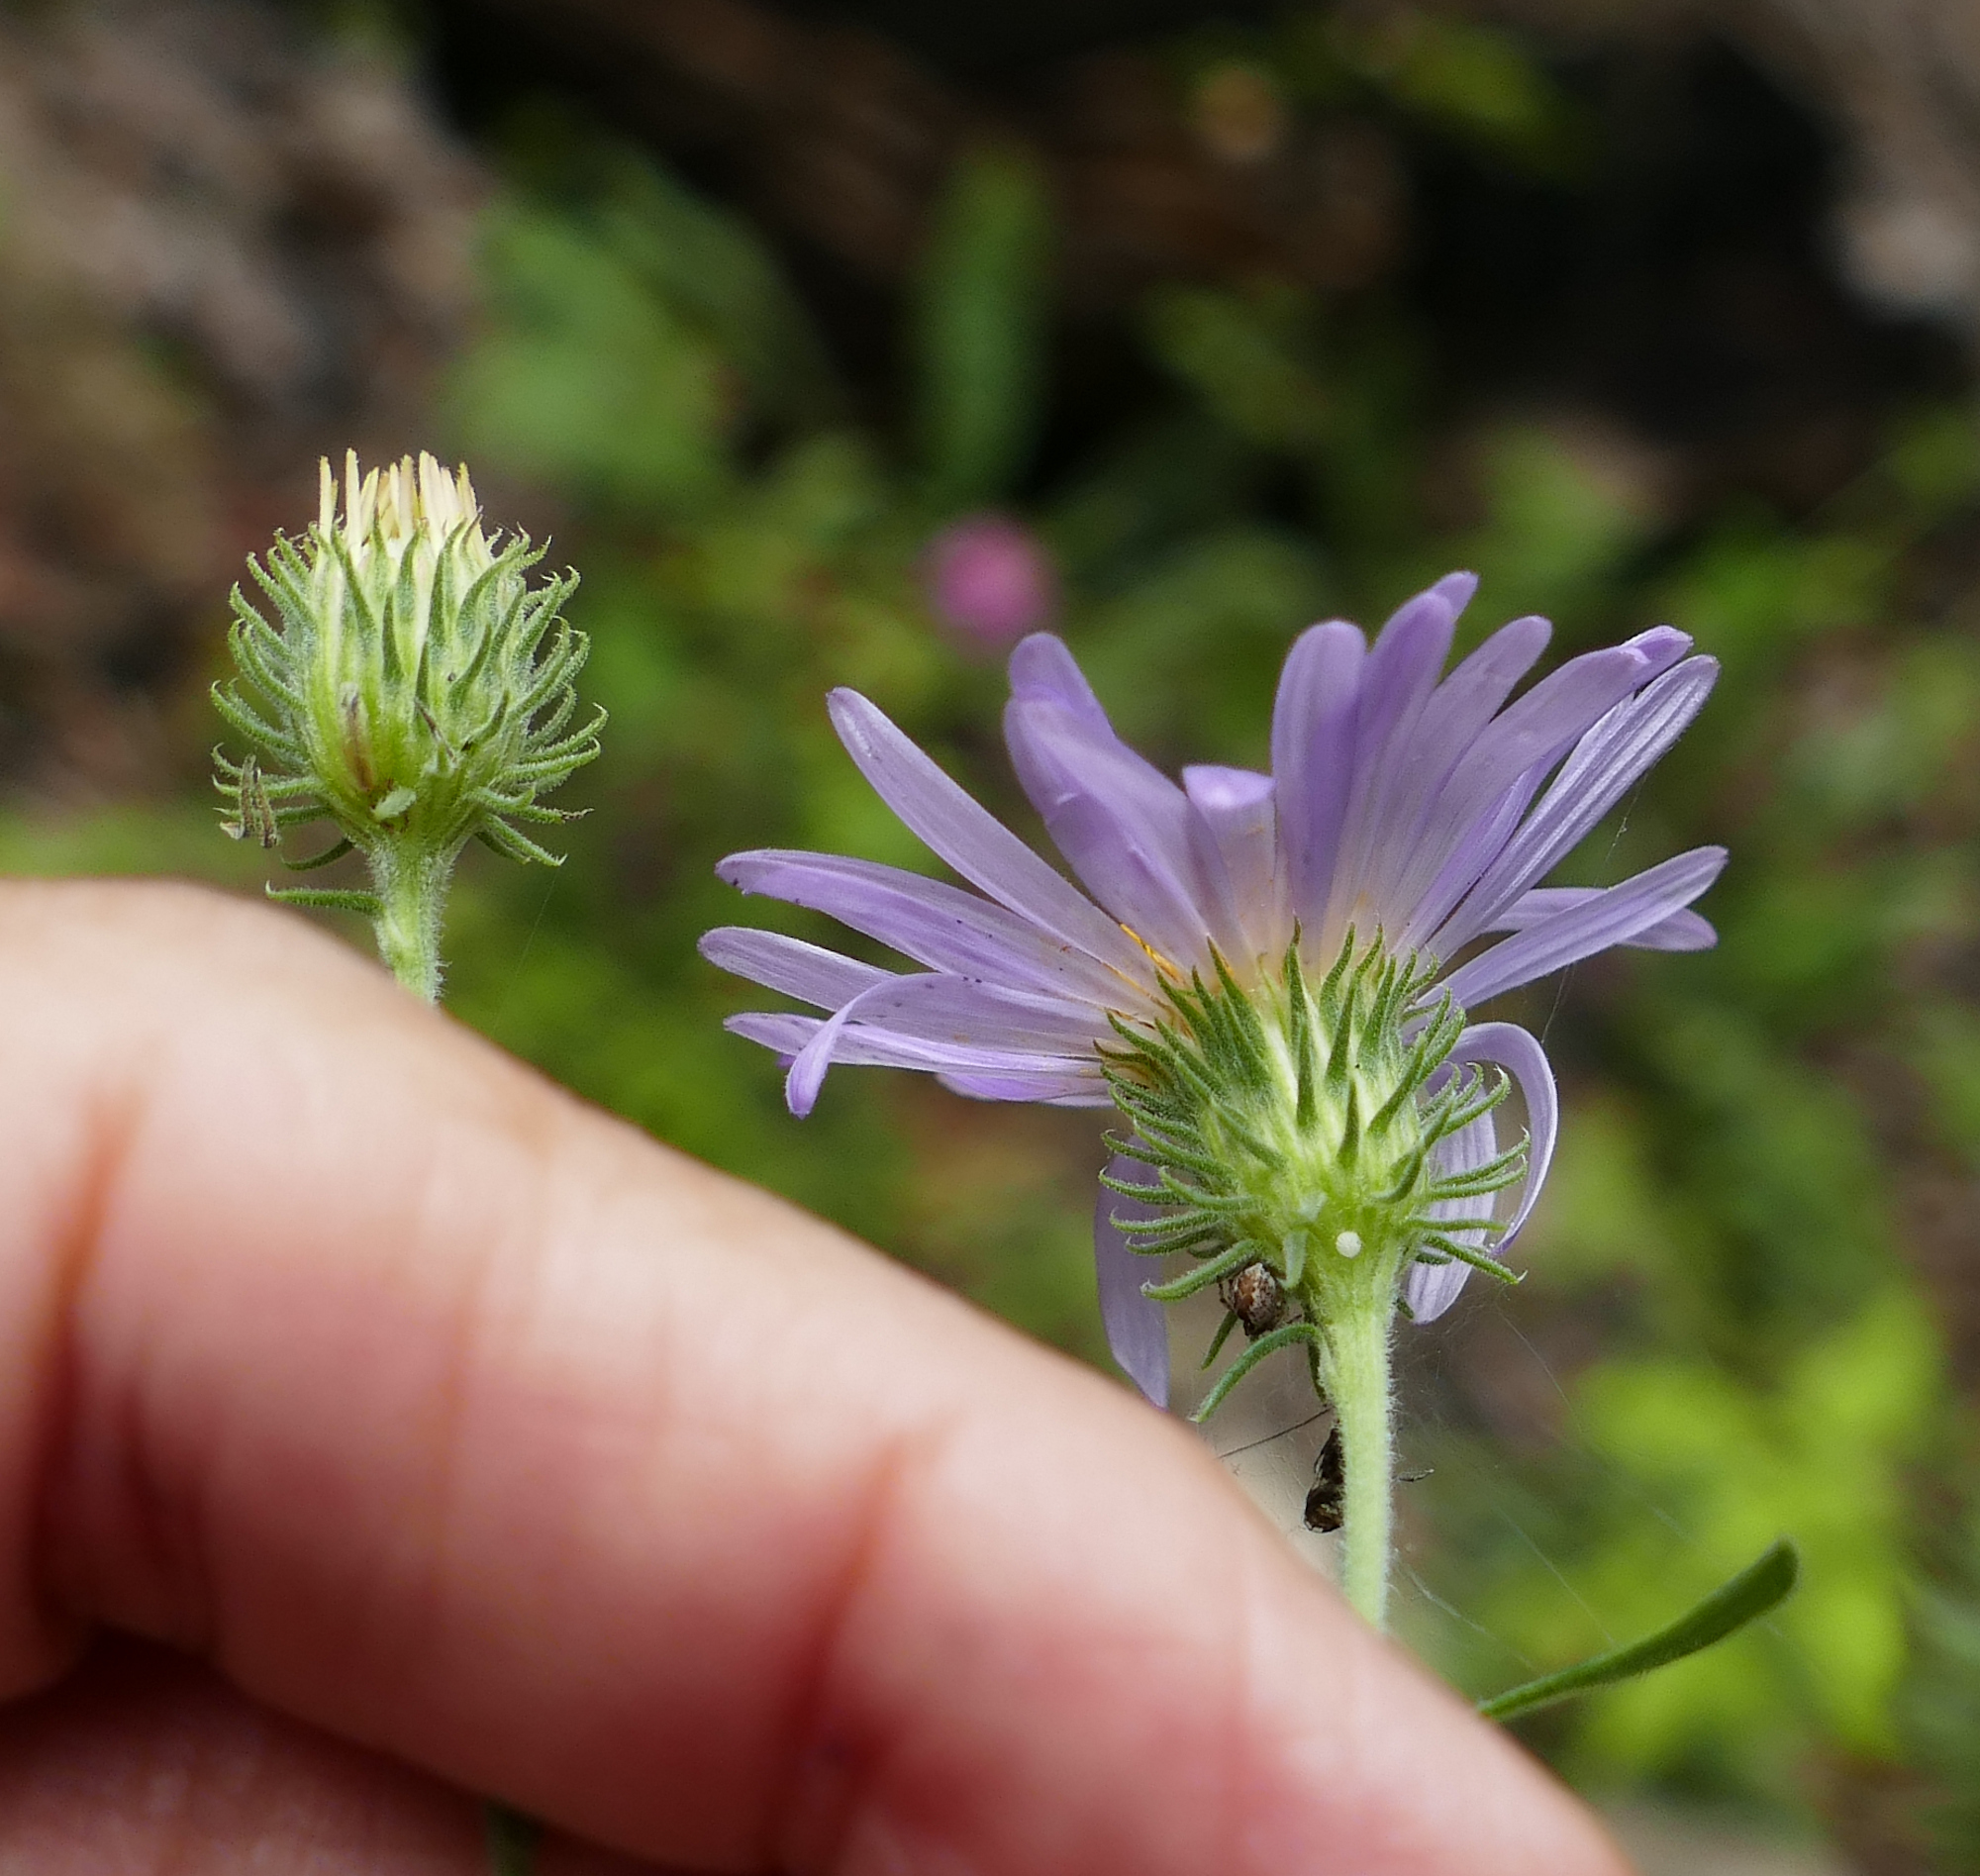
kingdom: Plantae
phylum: Tracheophyta
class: Magnoliopsida
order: Asterales
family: Asteraceae
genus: Dieteria
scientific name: Dieteria asteroides
